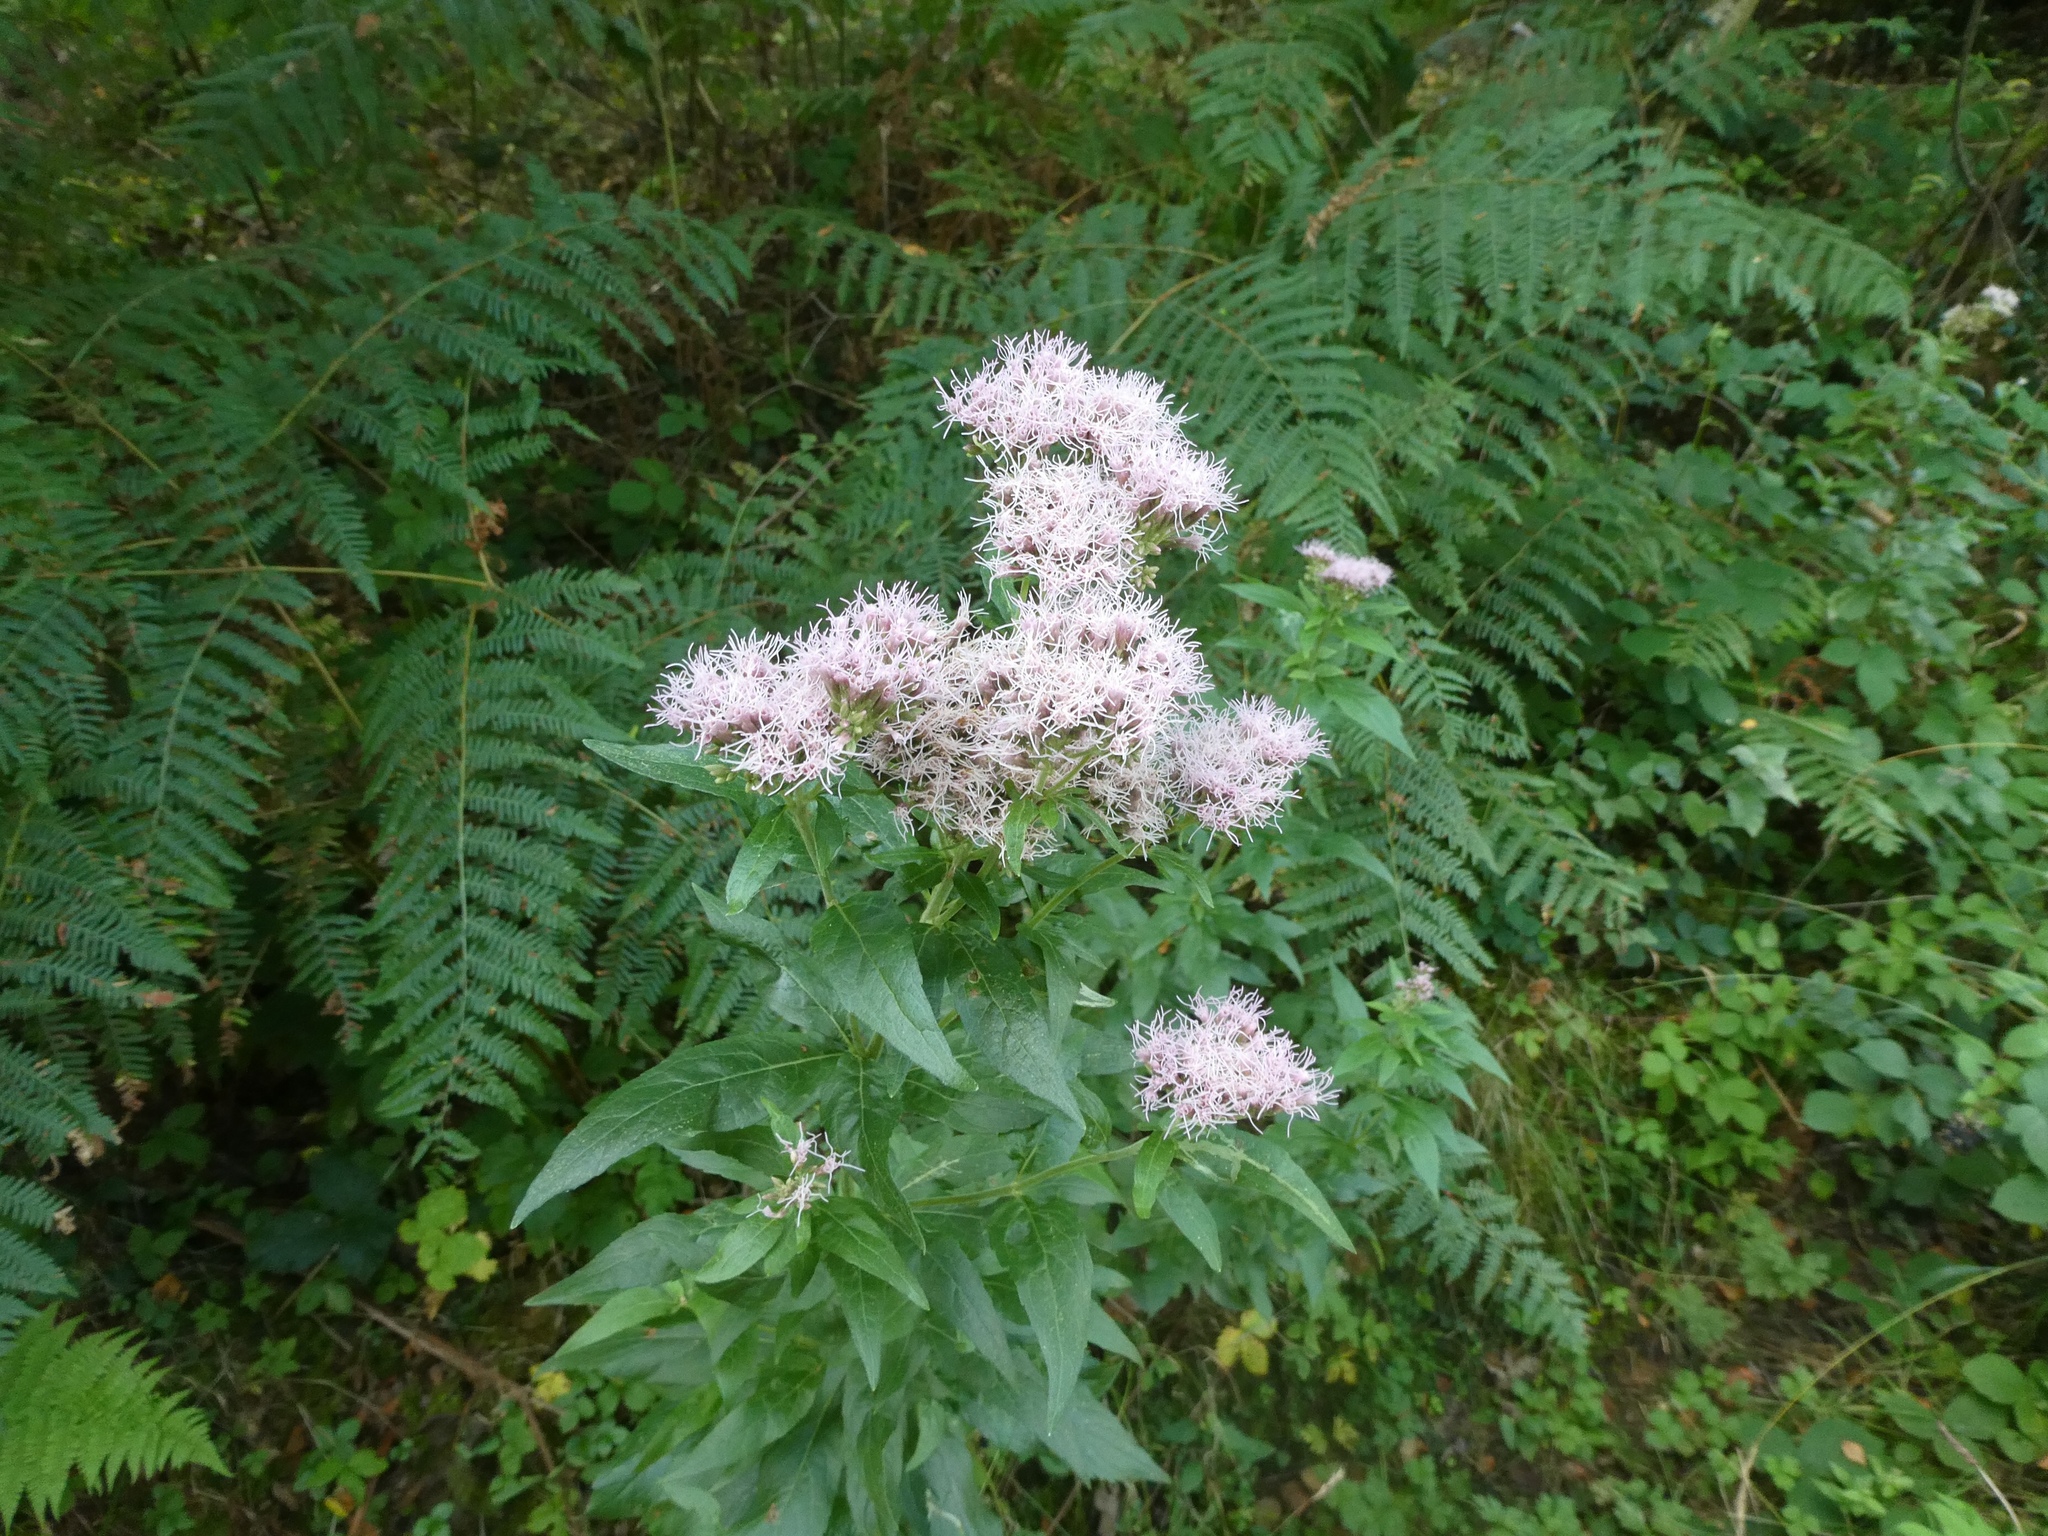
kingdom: Plantae
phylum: Tracheophyta
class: Magnoliopsida
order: Asterales
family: Asteraceae
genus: Eupatorium
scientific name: Eupatorium cannabinum
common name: Hemp-agrimony
